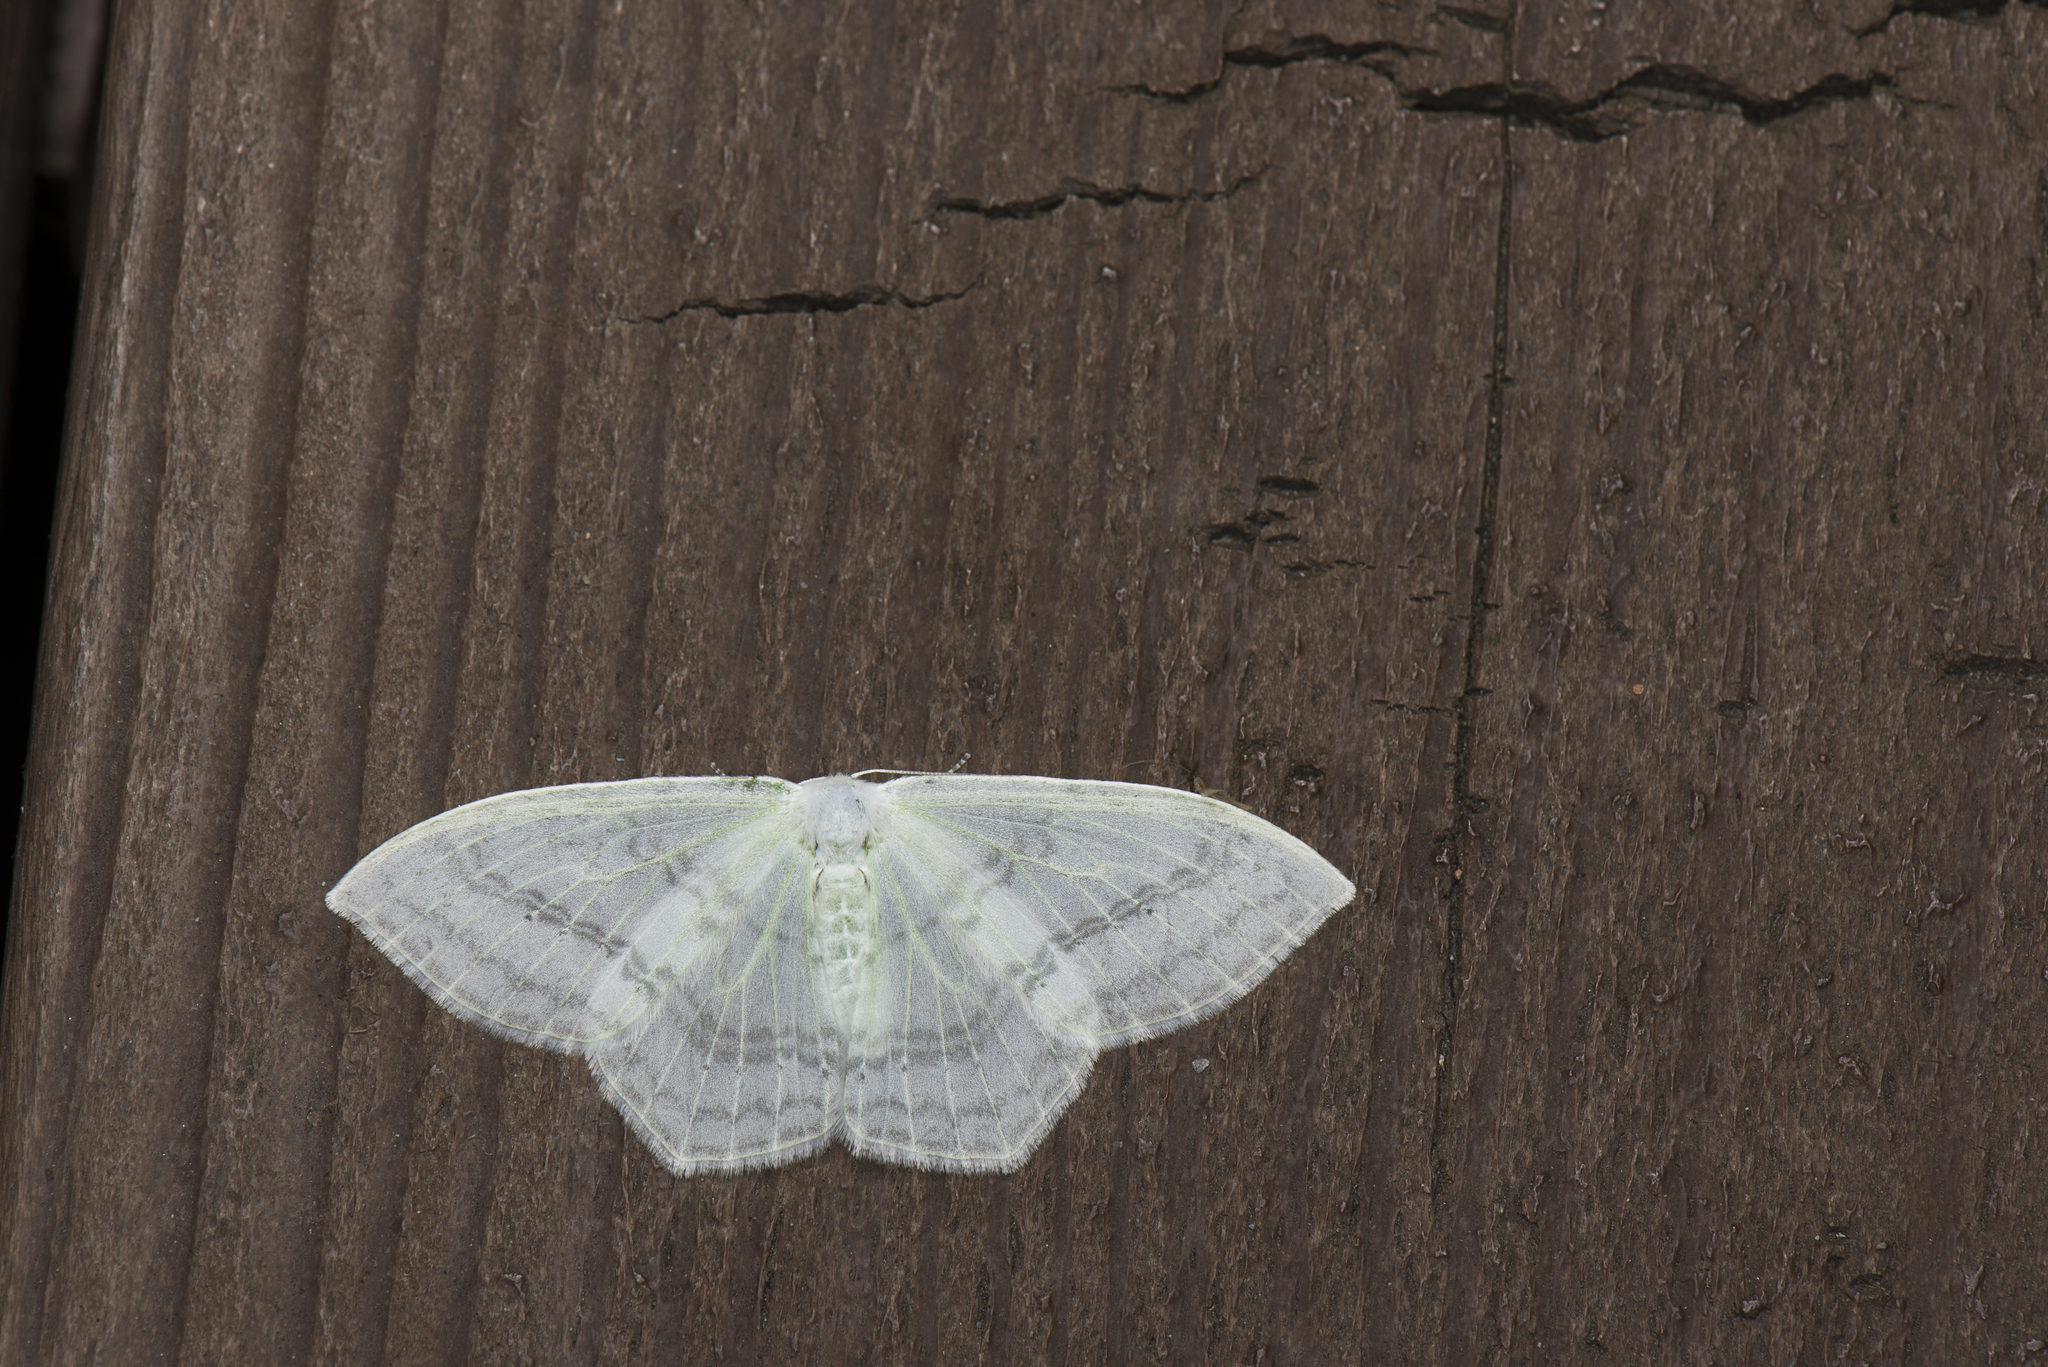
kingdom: Animalia
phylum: Arthropoda
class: Insecta
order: Lepidoptera
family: Drepanidae
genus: Auzata
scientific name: Auzata simpliciata
